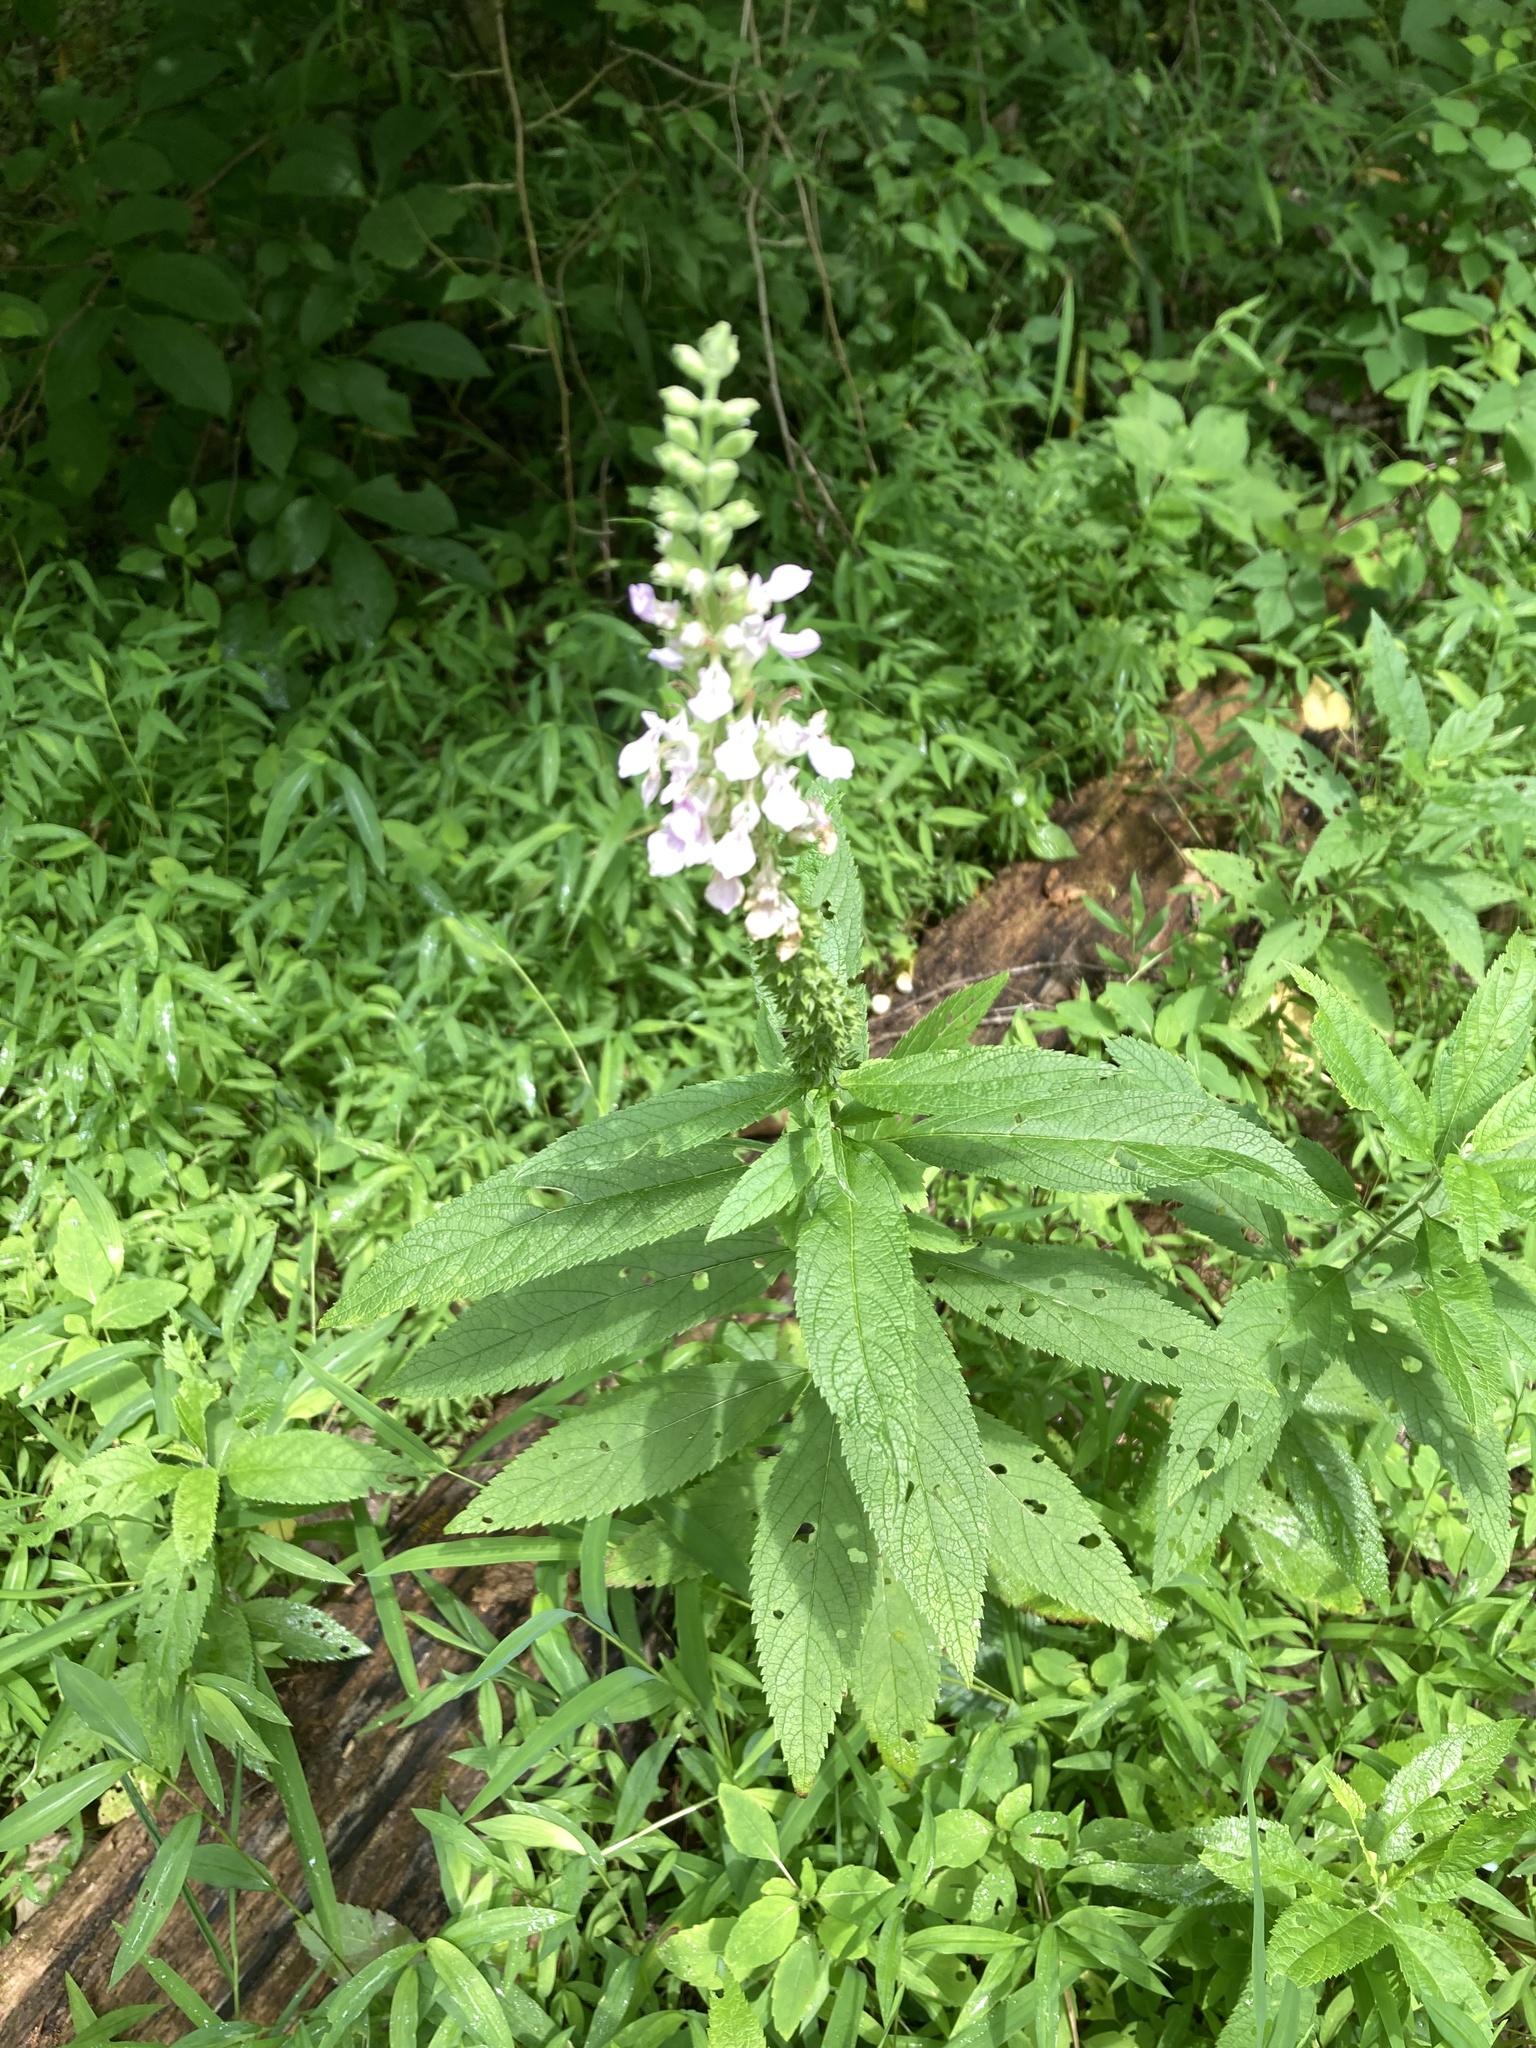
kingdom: Plantae
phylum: Tracheophyta
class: Magnoliopsida
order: Lamiales
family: Lamiaceae
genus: Teucrium
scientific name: Teucrium canadense
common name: American germander
